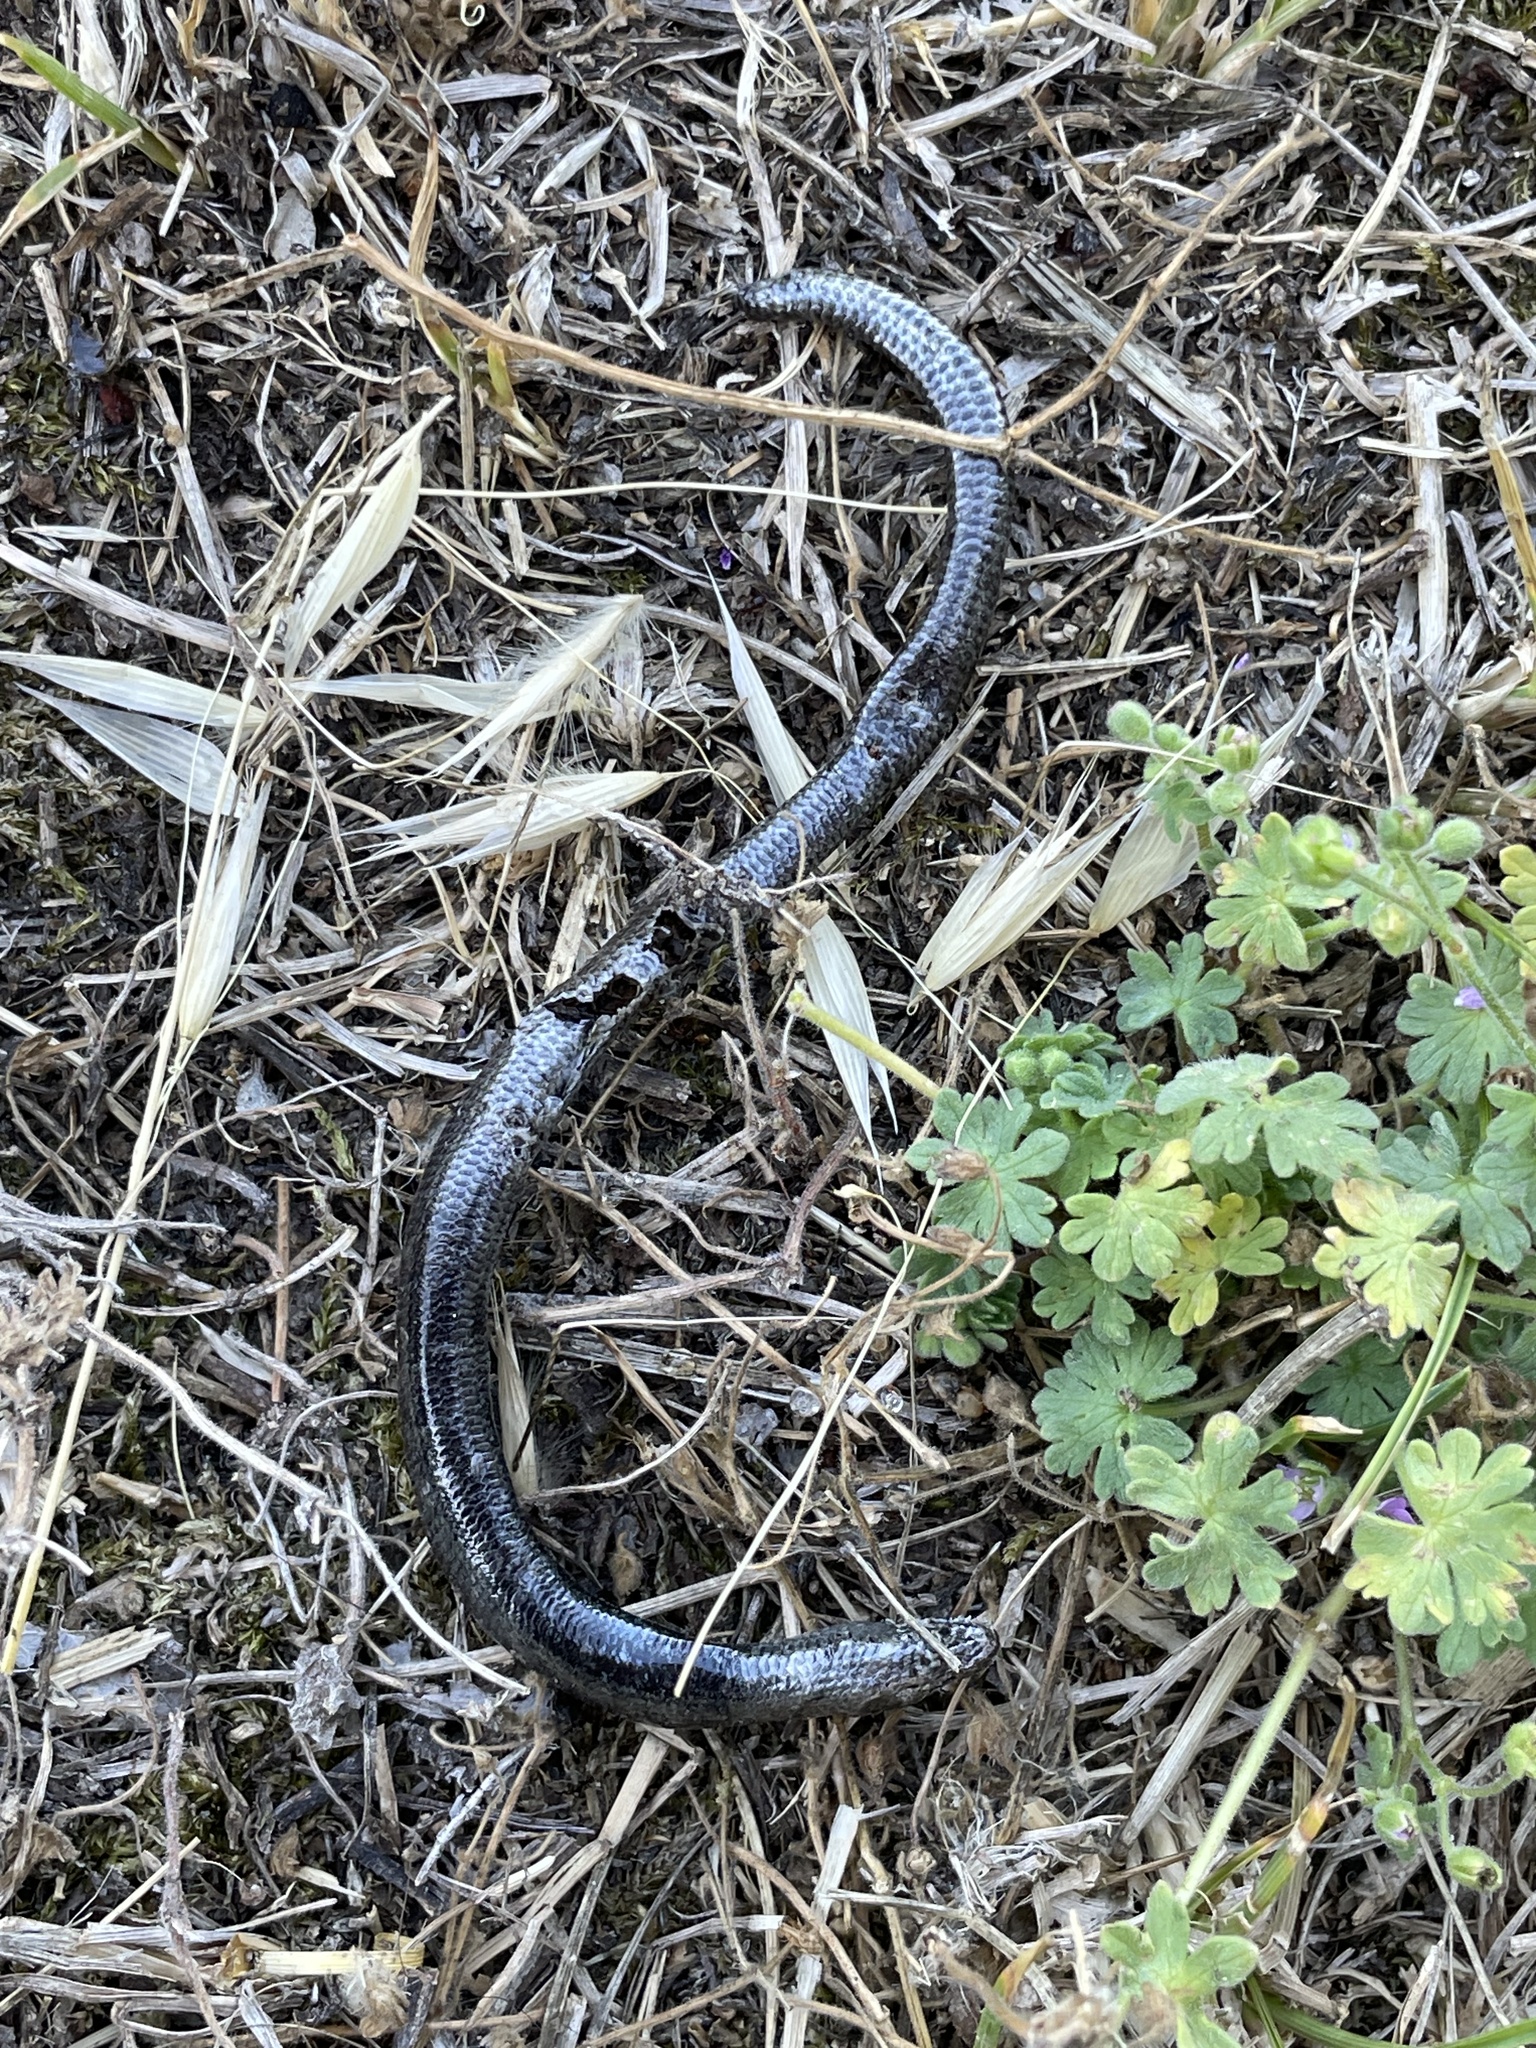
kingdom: Animalia
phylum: Chordata
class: Squamata
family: Anguidae
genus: Anguis
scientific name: Anguis fragilis
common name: Slow worm
